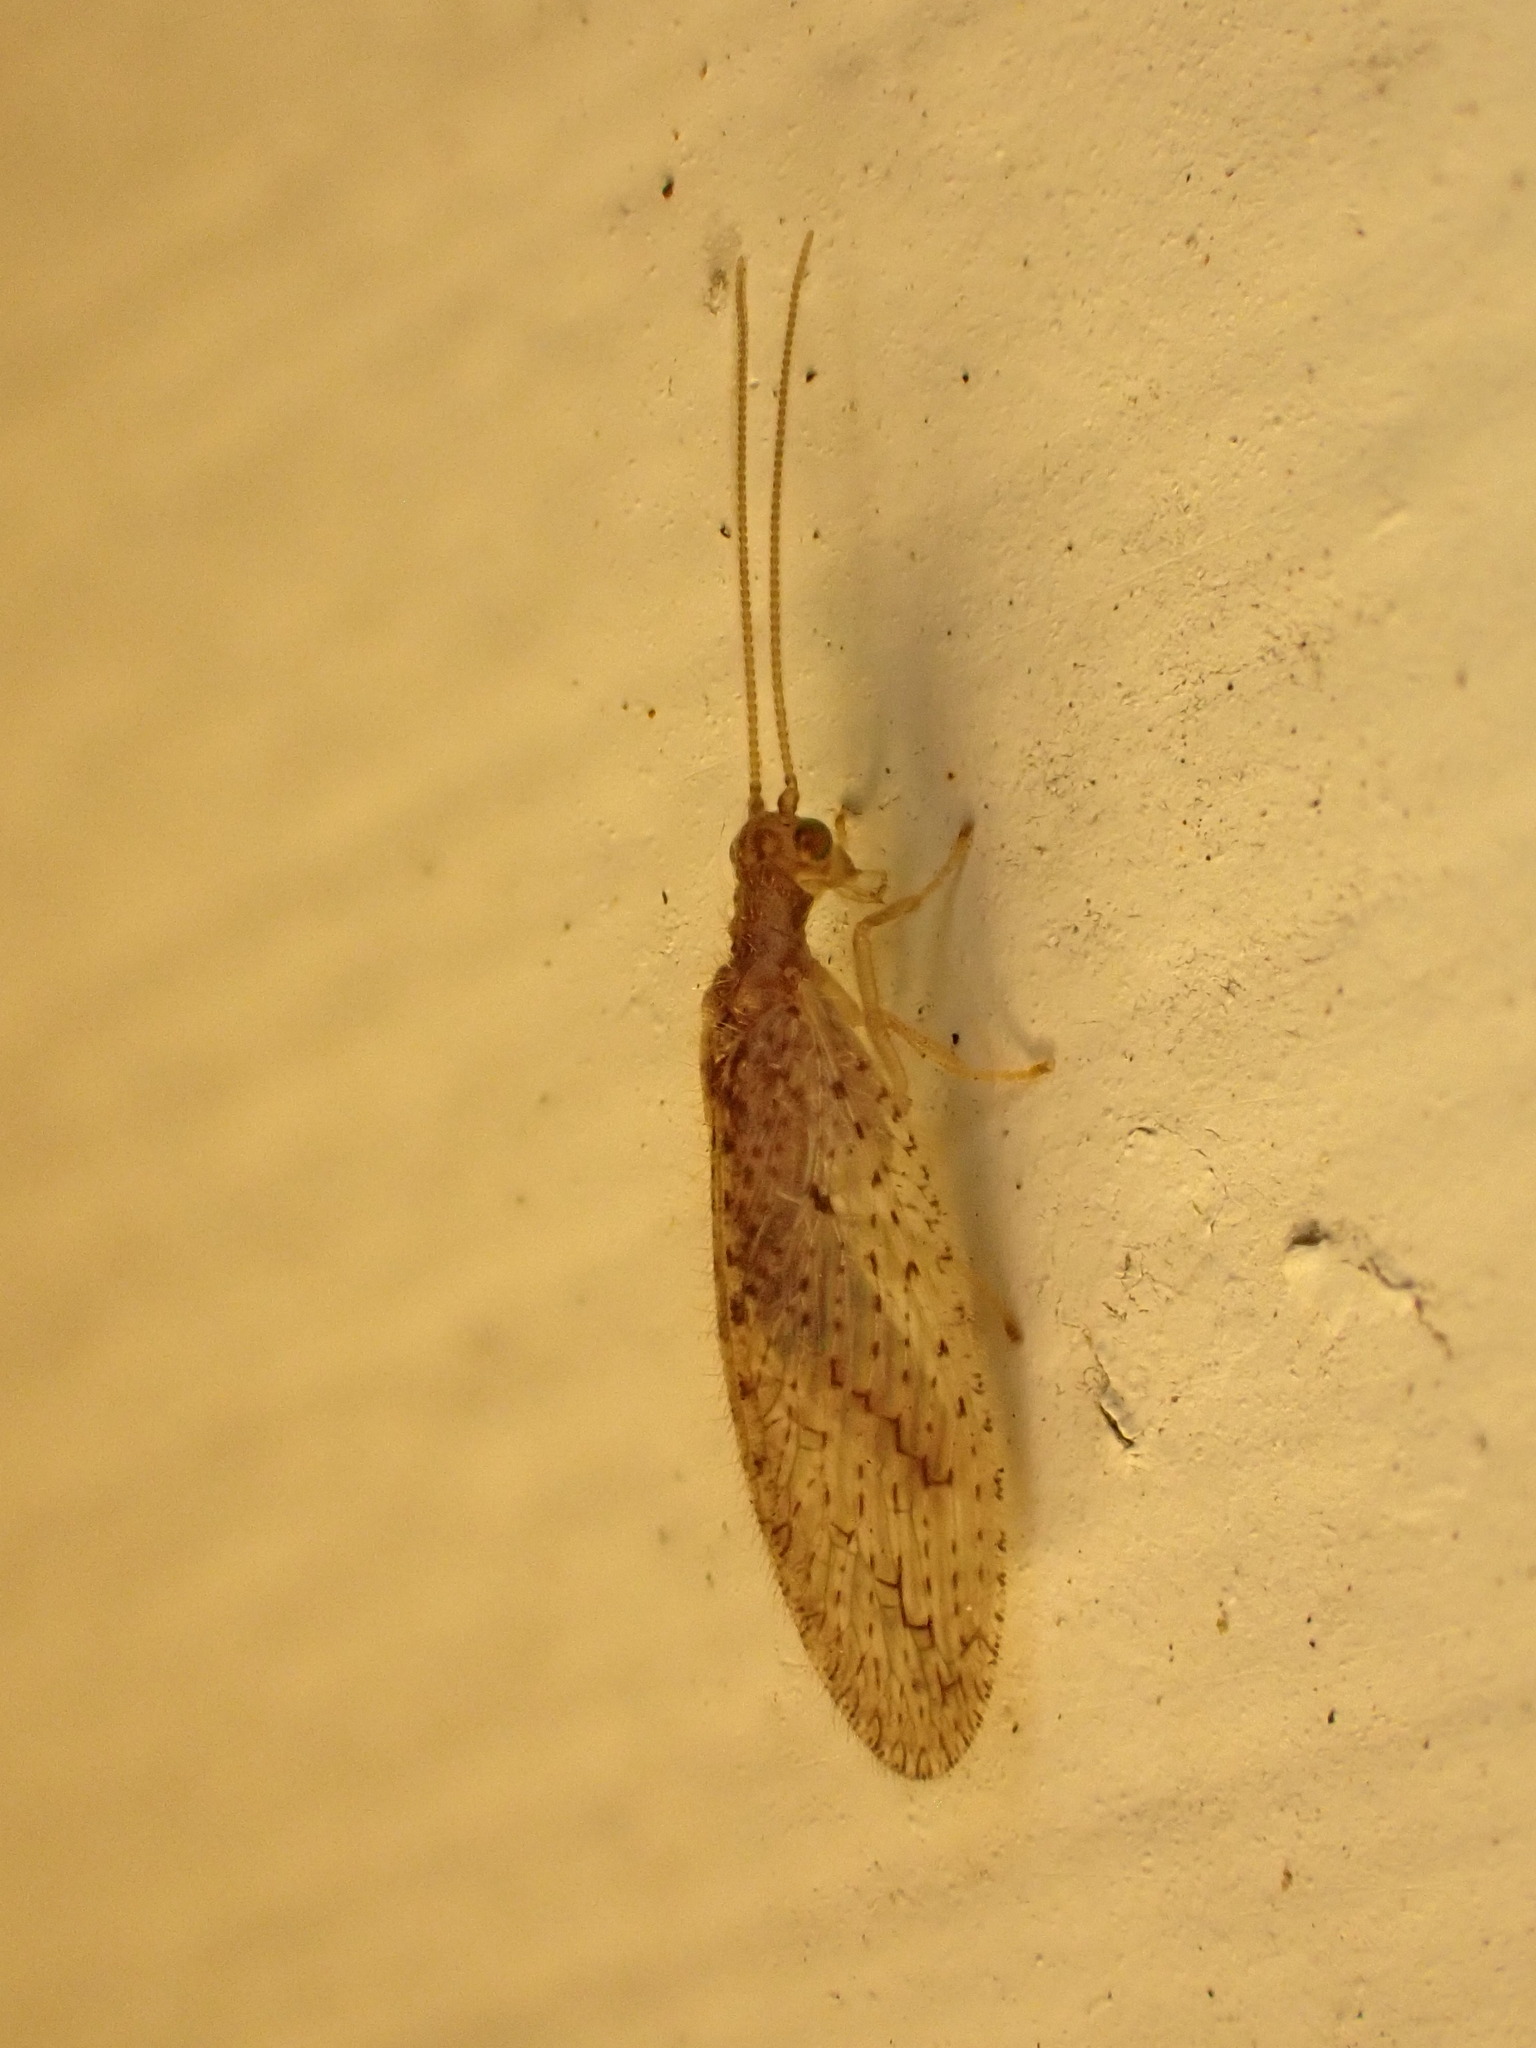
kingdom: Animalia
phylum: Arthropoda
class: Insecta
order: Neuroptera
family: Hemerobiidae
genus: Micromus
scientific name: Micromus tasmaniae
